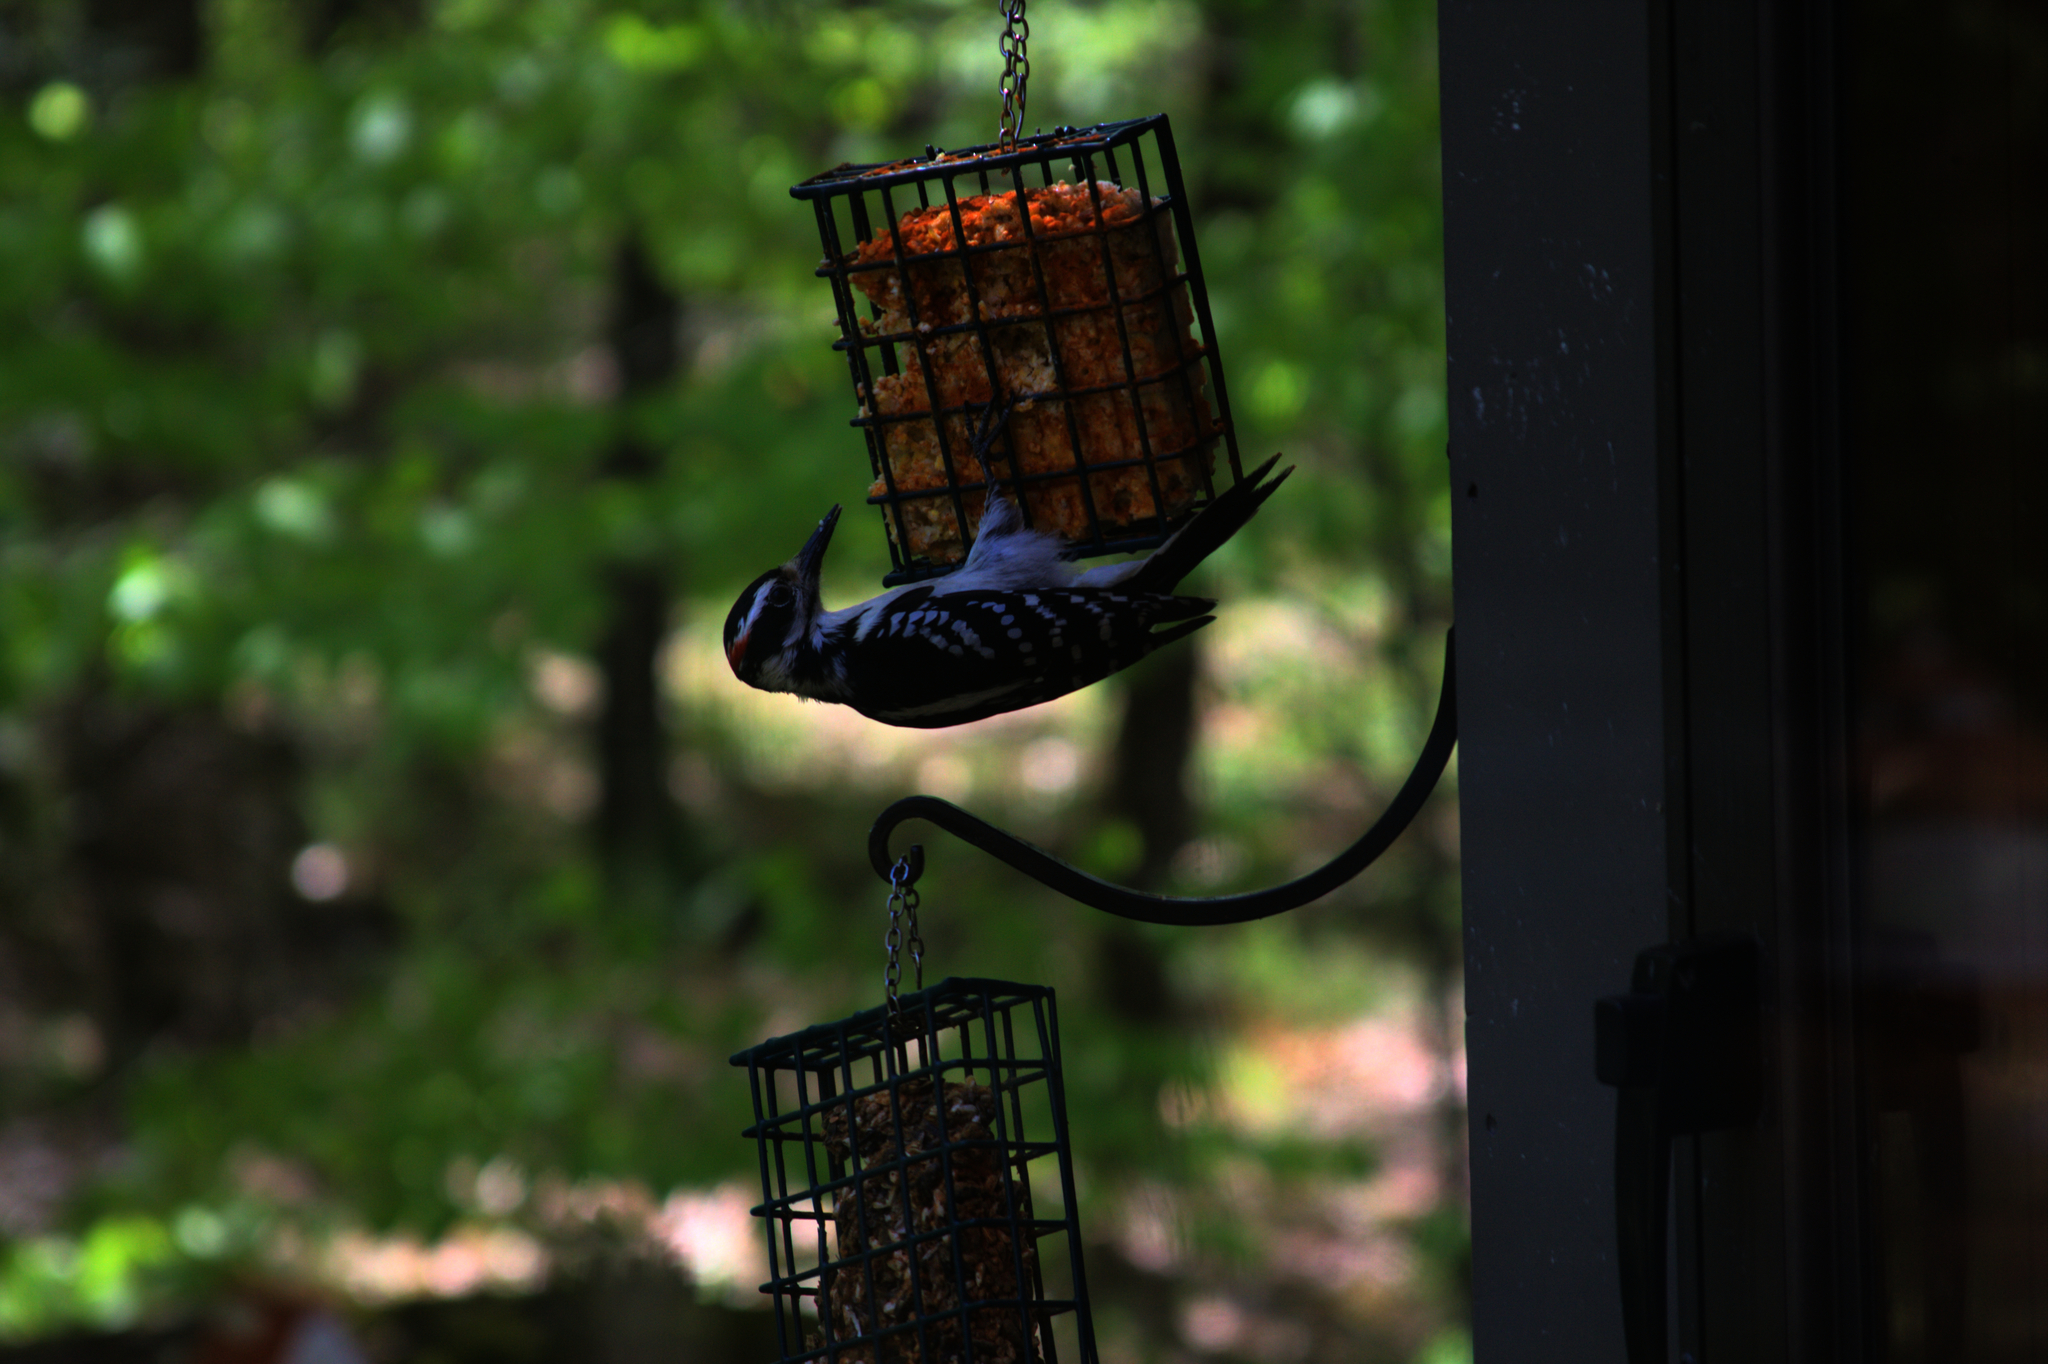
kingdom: Animalia
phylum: Chordata
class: Aves
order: Piciformes
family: Picidae
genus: Leuconotopicus
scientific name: Leuconotopicus villosus
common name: Hairy woodpecker
